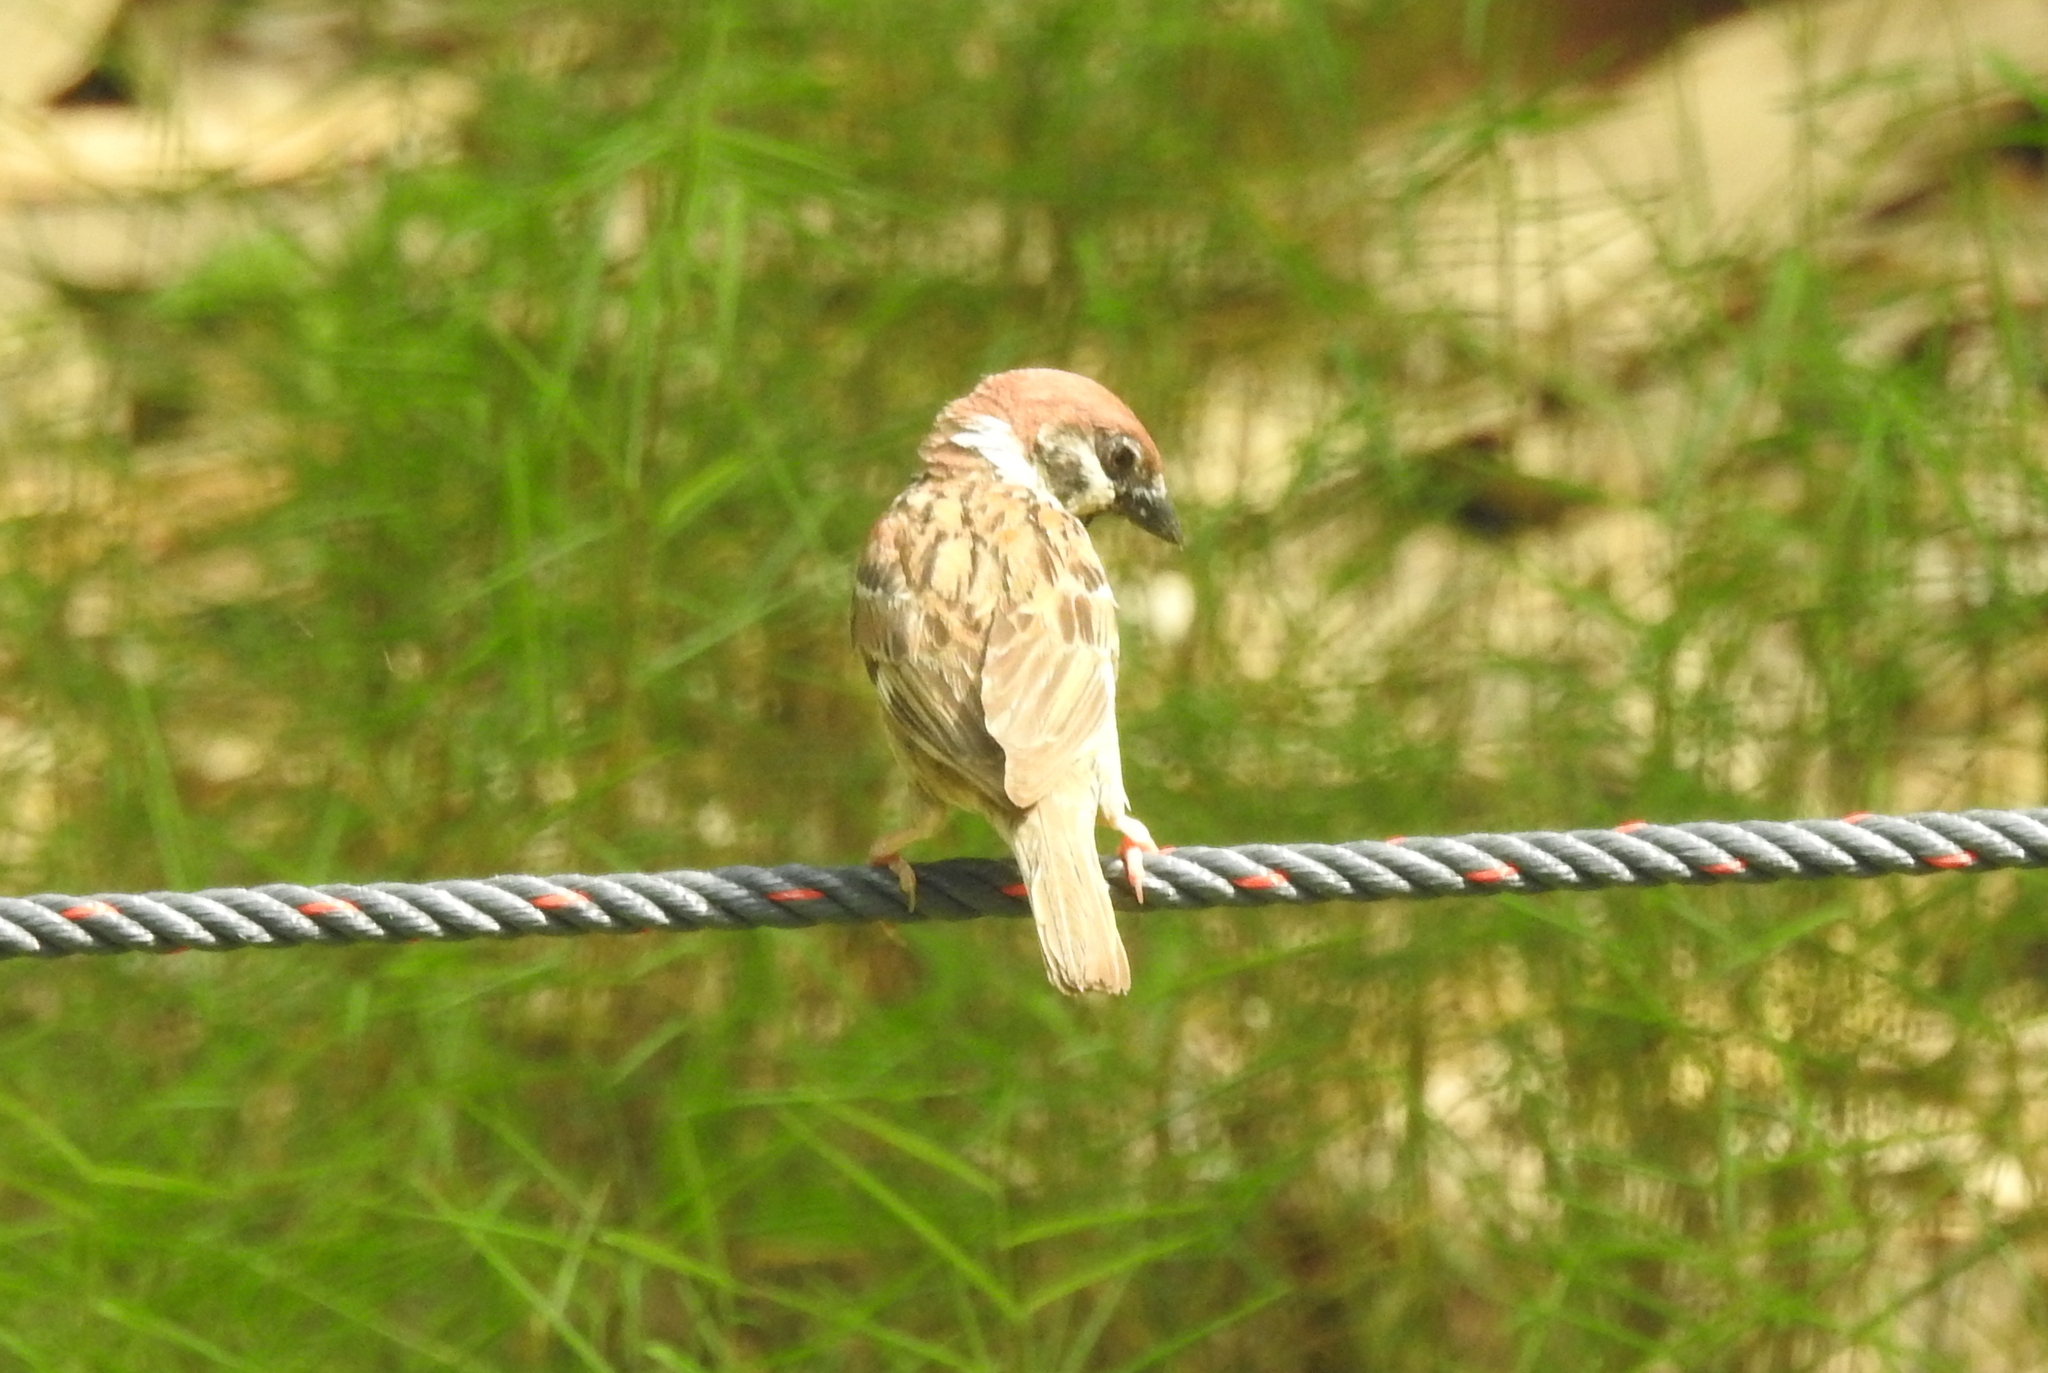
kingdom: Animalia
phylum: Chordata
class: Aves
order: Passeriformes
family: Passeridae
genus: Passer
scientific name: Passer montanus
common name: Eurasian tree sparrow
